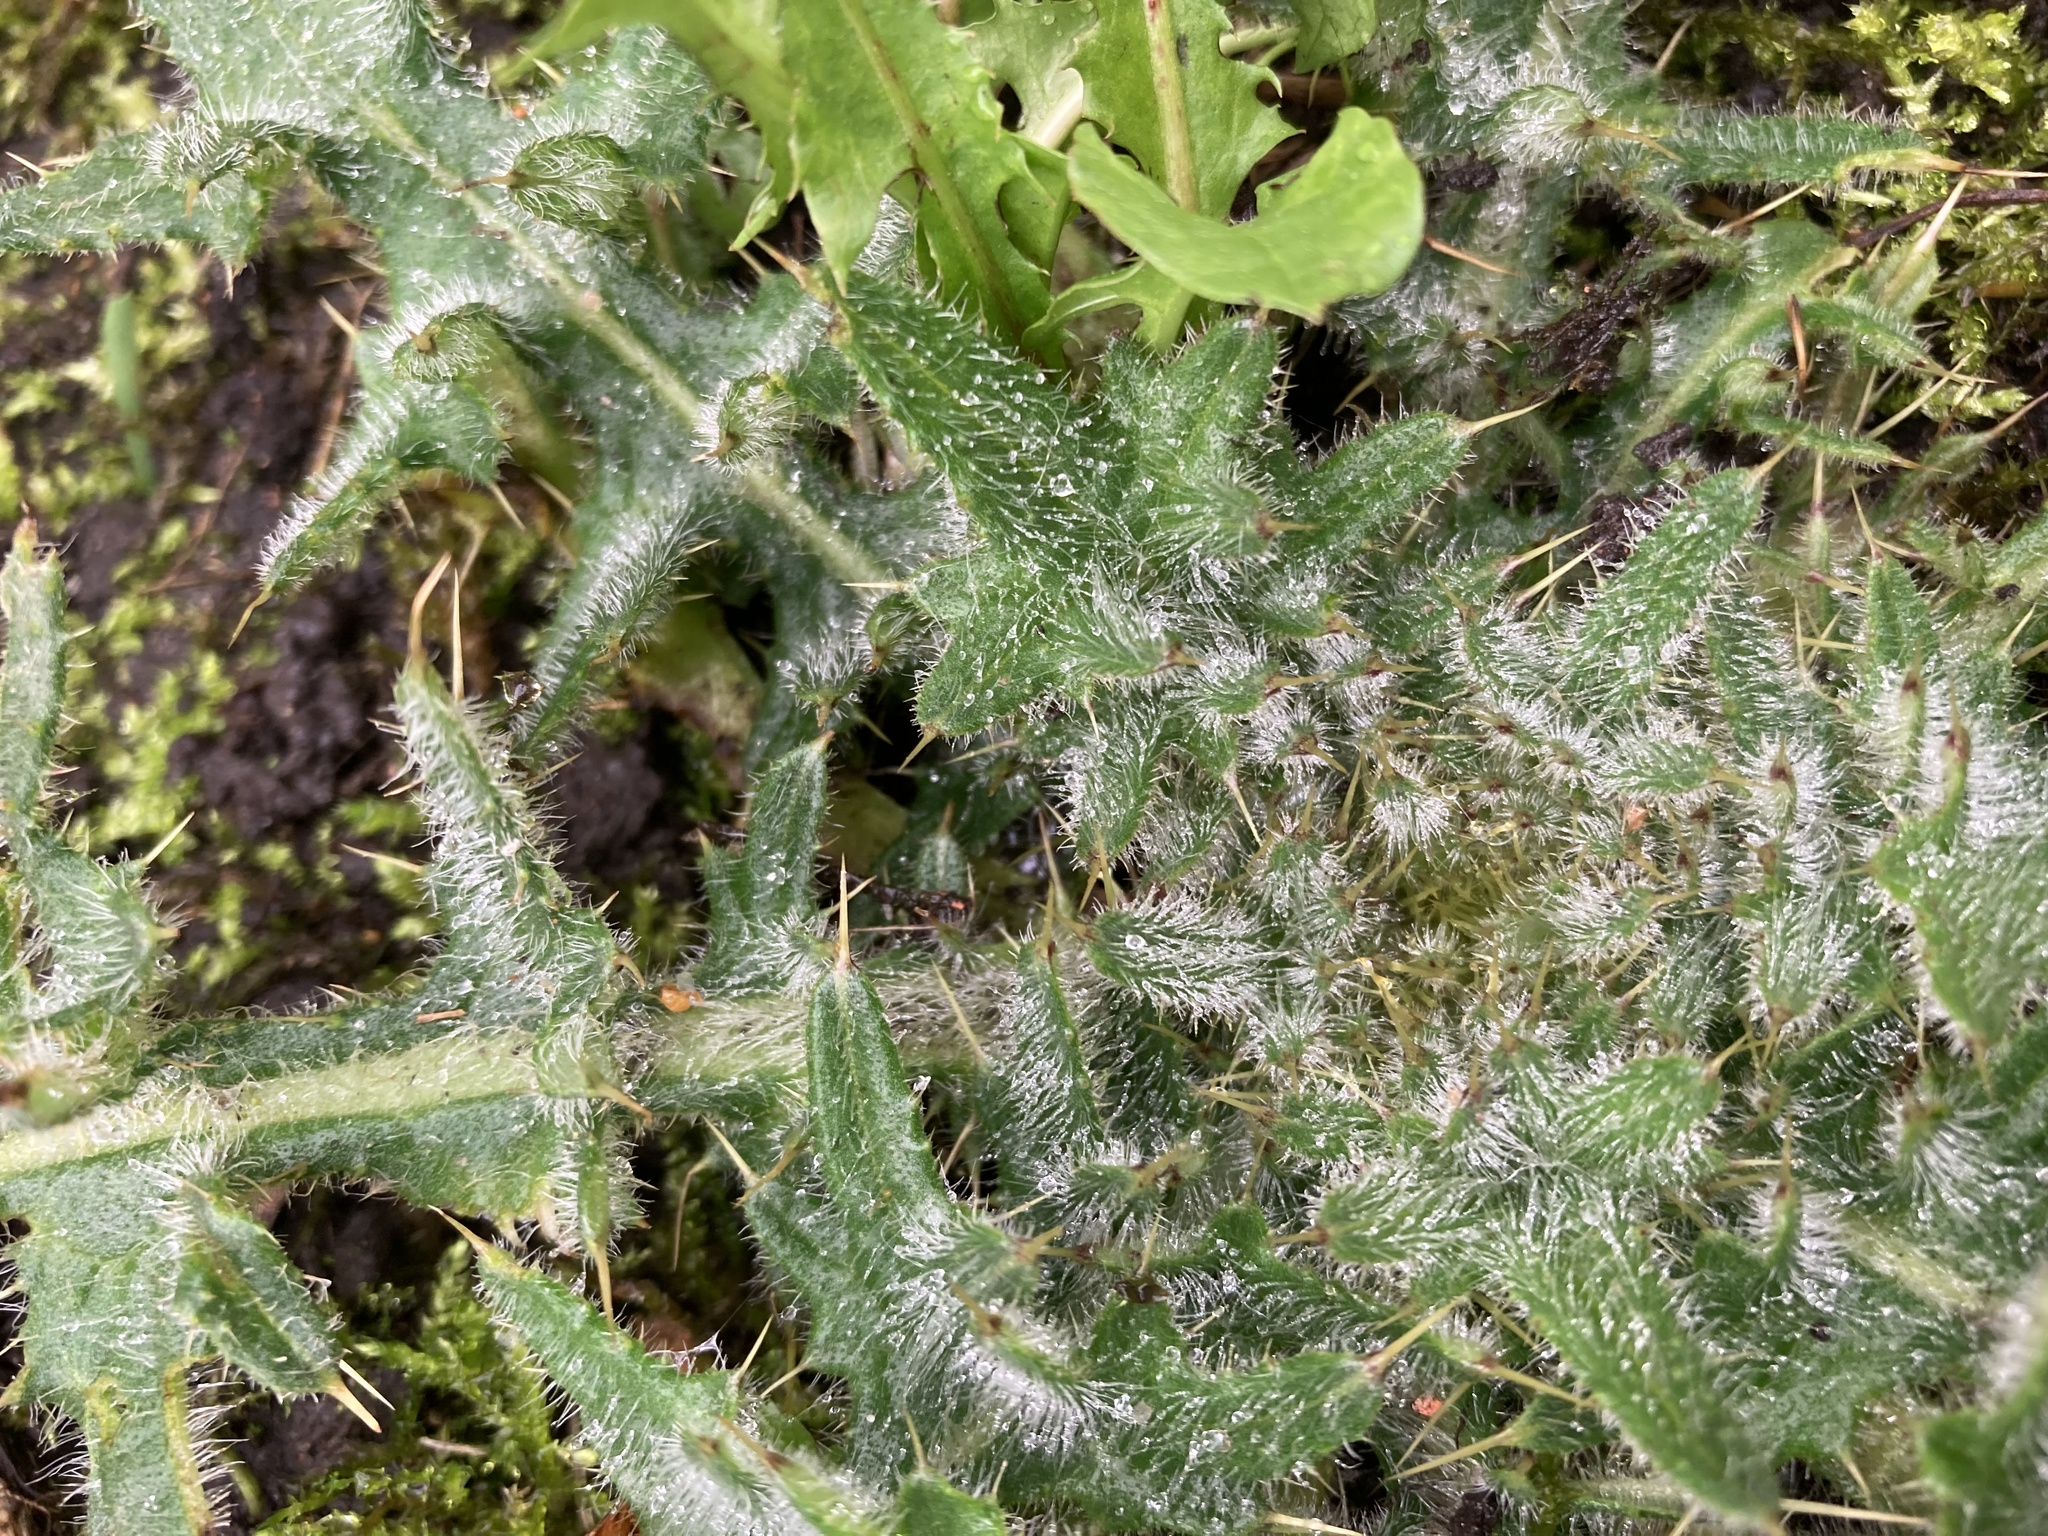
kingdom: Plantae
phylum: Tracheophyta
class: Magnoliopsida
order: Asterales
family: Asteraceae
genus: Cirsium
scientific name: Cirsium vulgare
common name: Bull thistle
